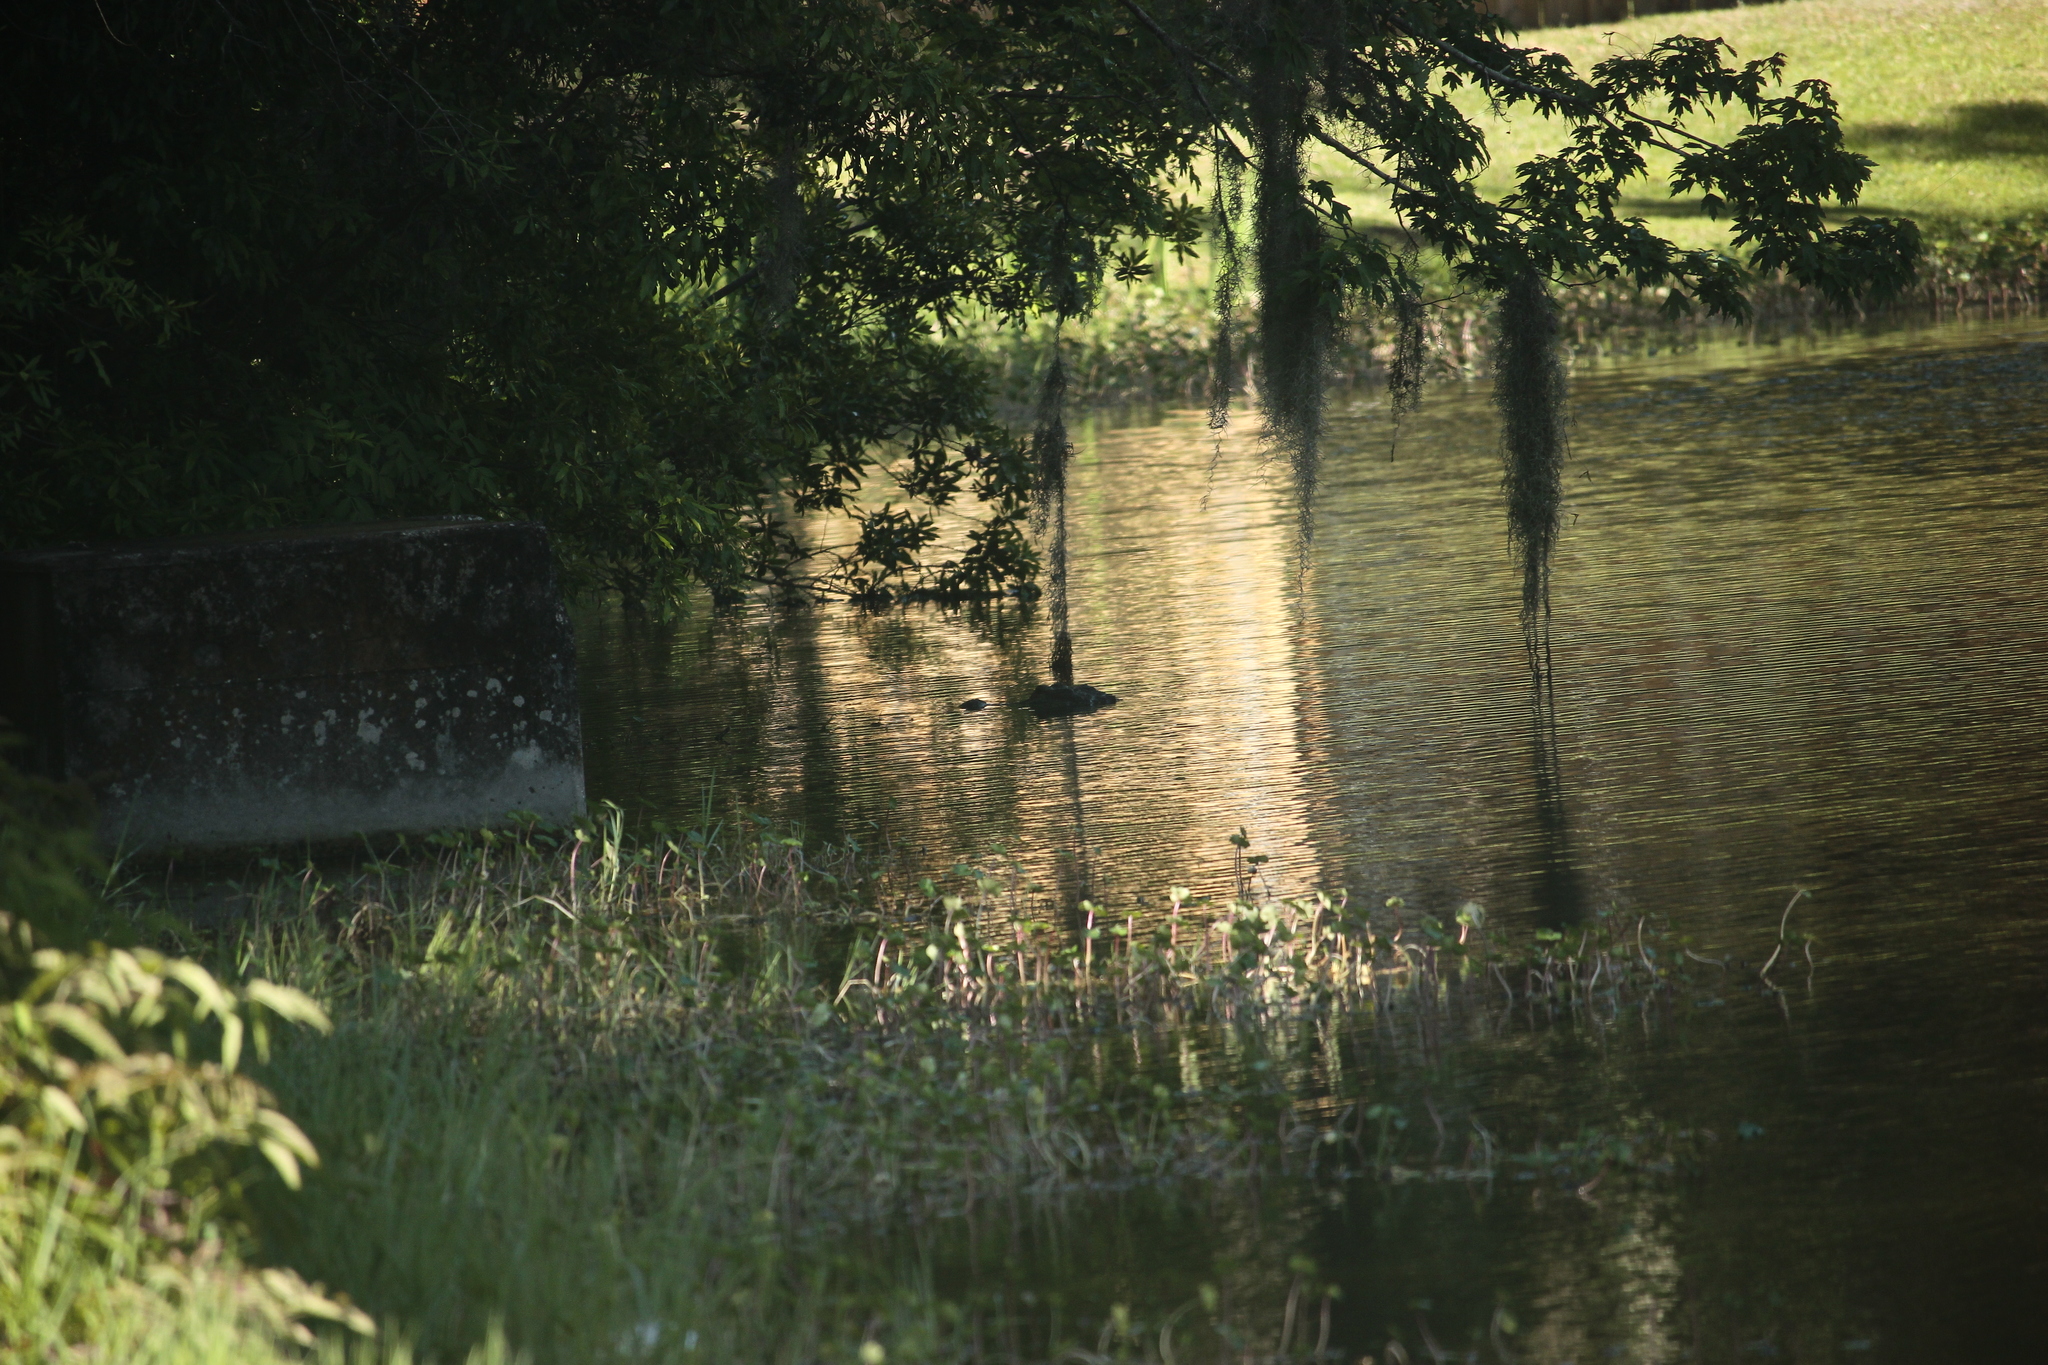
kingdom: Animalia
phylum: Chordata
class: Crocodylia
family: Alligatoridae
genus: Alligator
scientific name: Alligator mississippiensis
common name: American alligator
